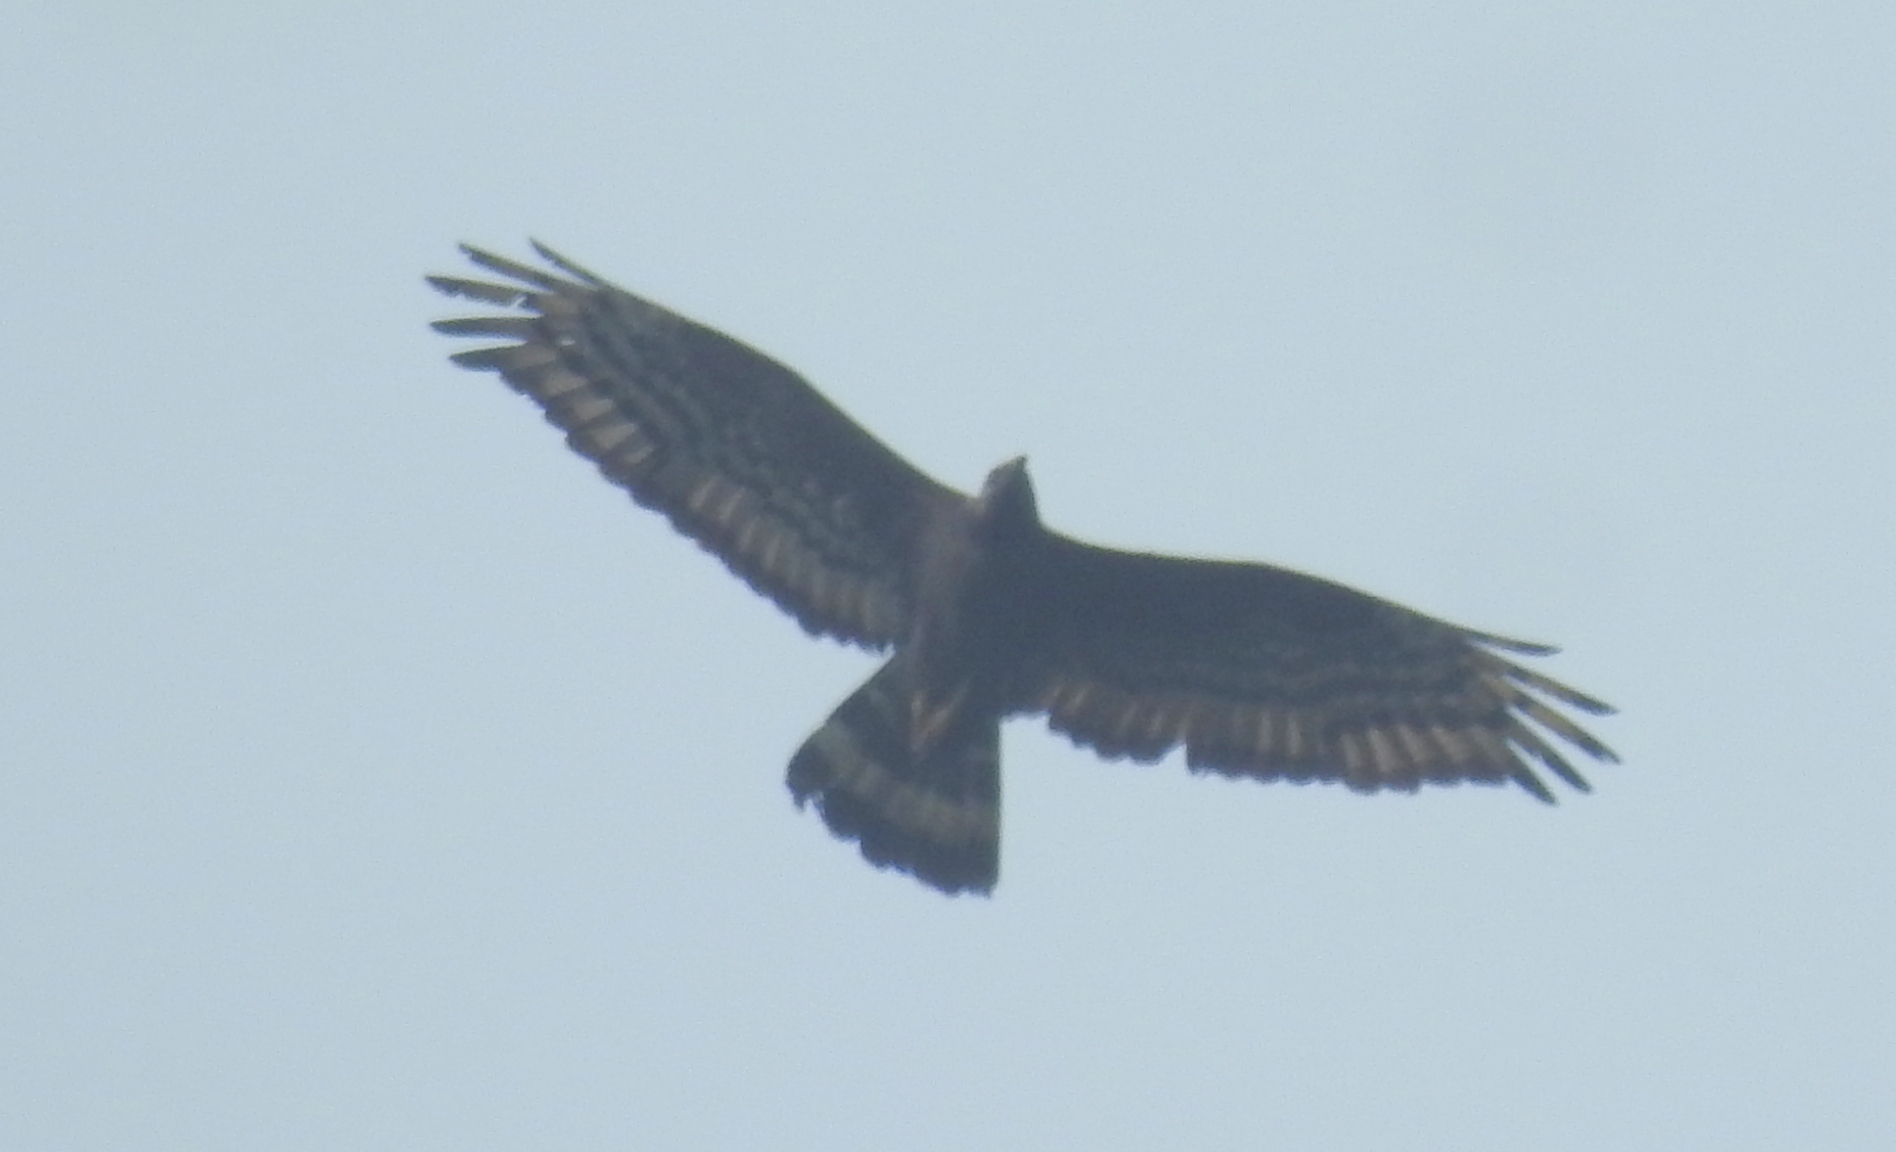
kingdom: Animalia
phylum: Chordata
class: Aves
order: Accipitriformes
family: Accipitridae
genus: Pernis
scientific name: Pernis ptilorhynchus
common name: Crested honey buzzard
